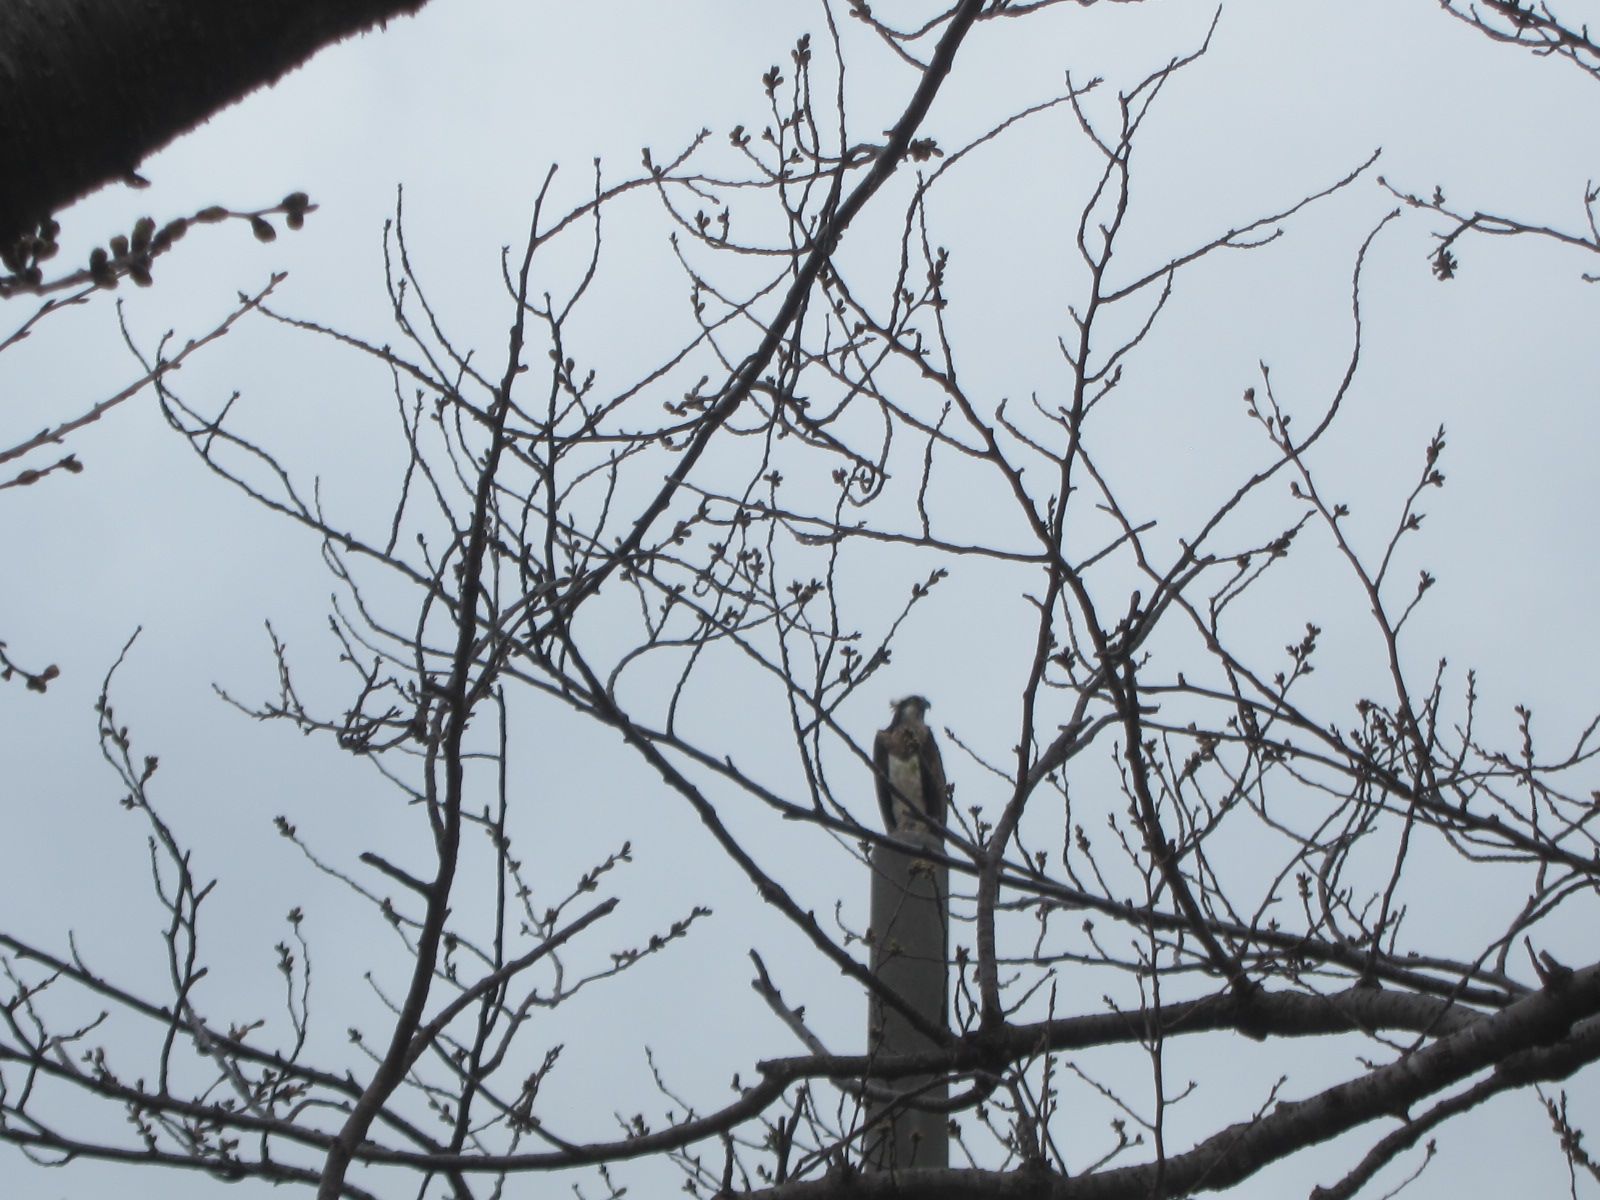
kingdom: Animalia
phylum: Chordata
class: Aves
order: Accipitriformes
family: Pandionidae
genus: Pandion
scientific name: Pandion haliaetus
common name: Osprey
